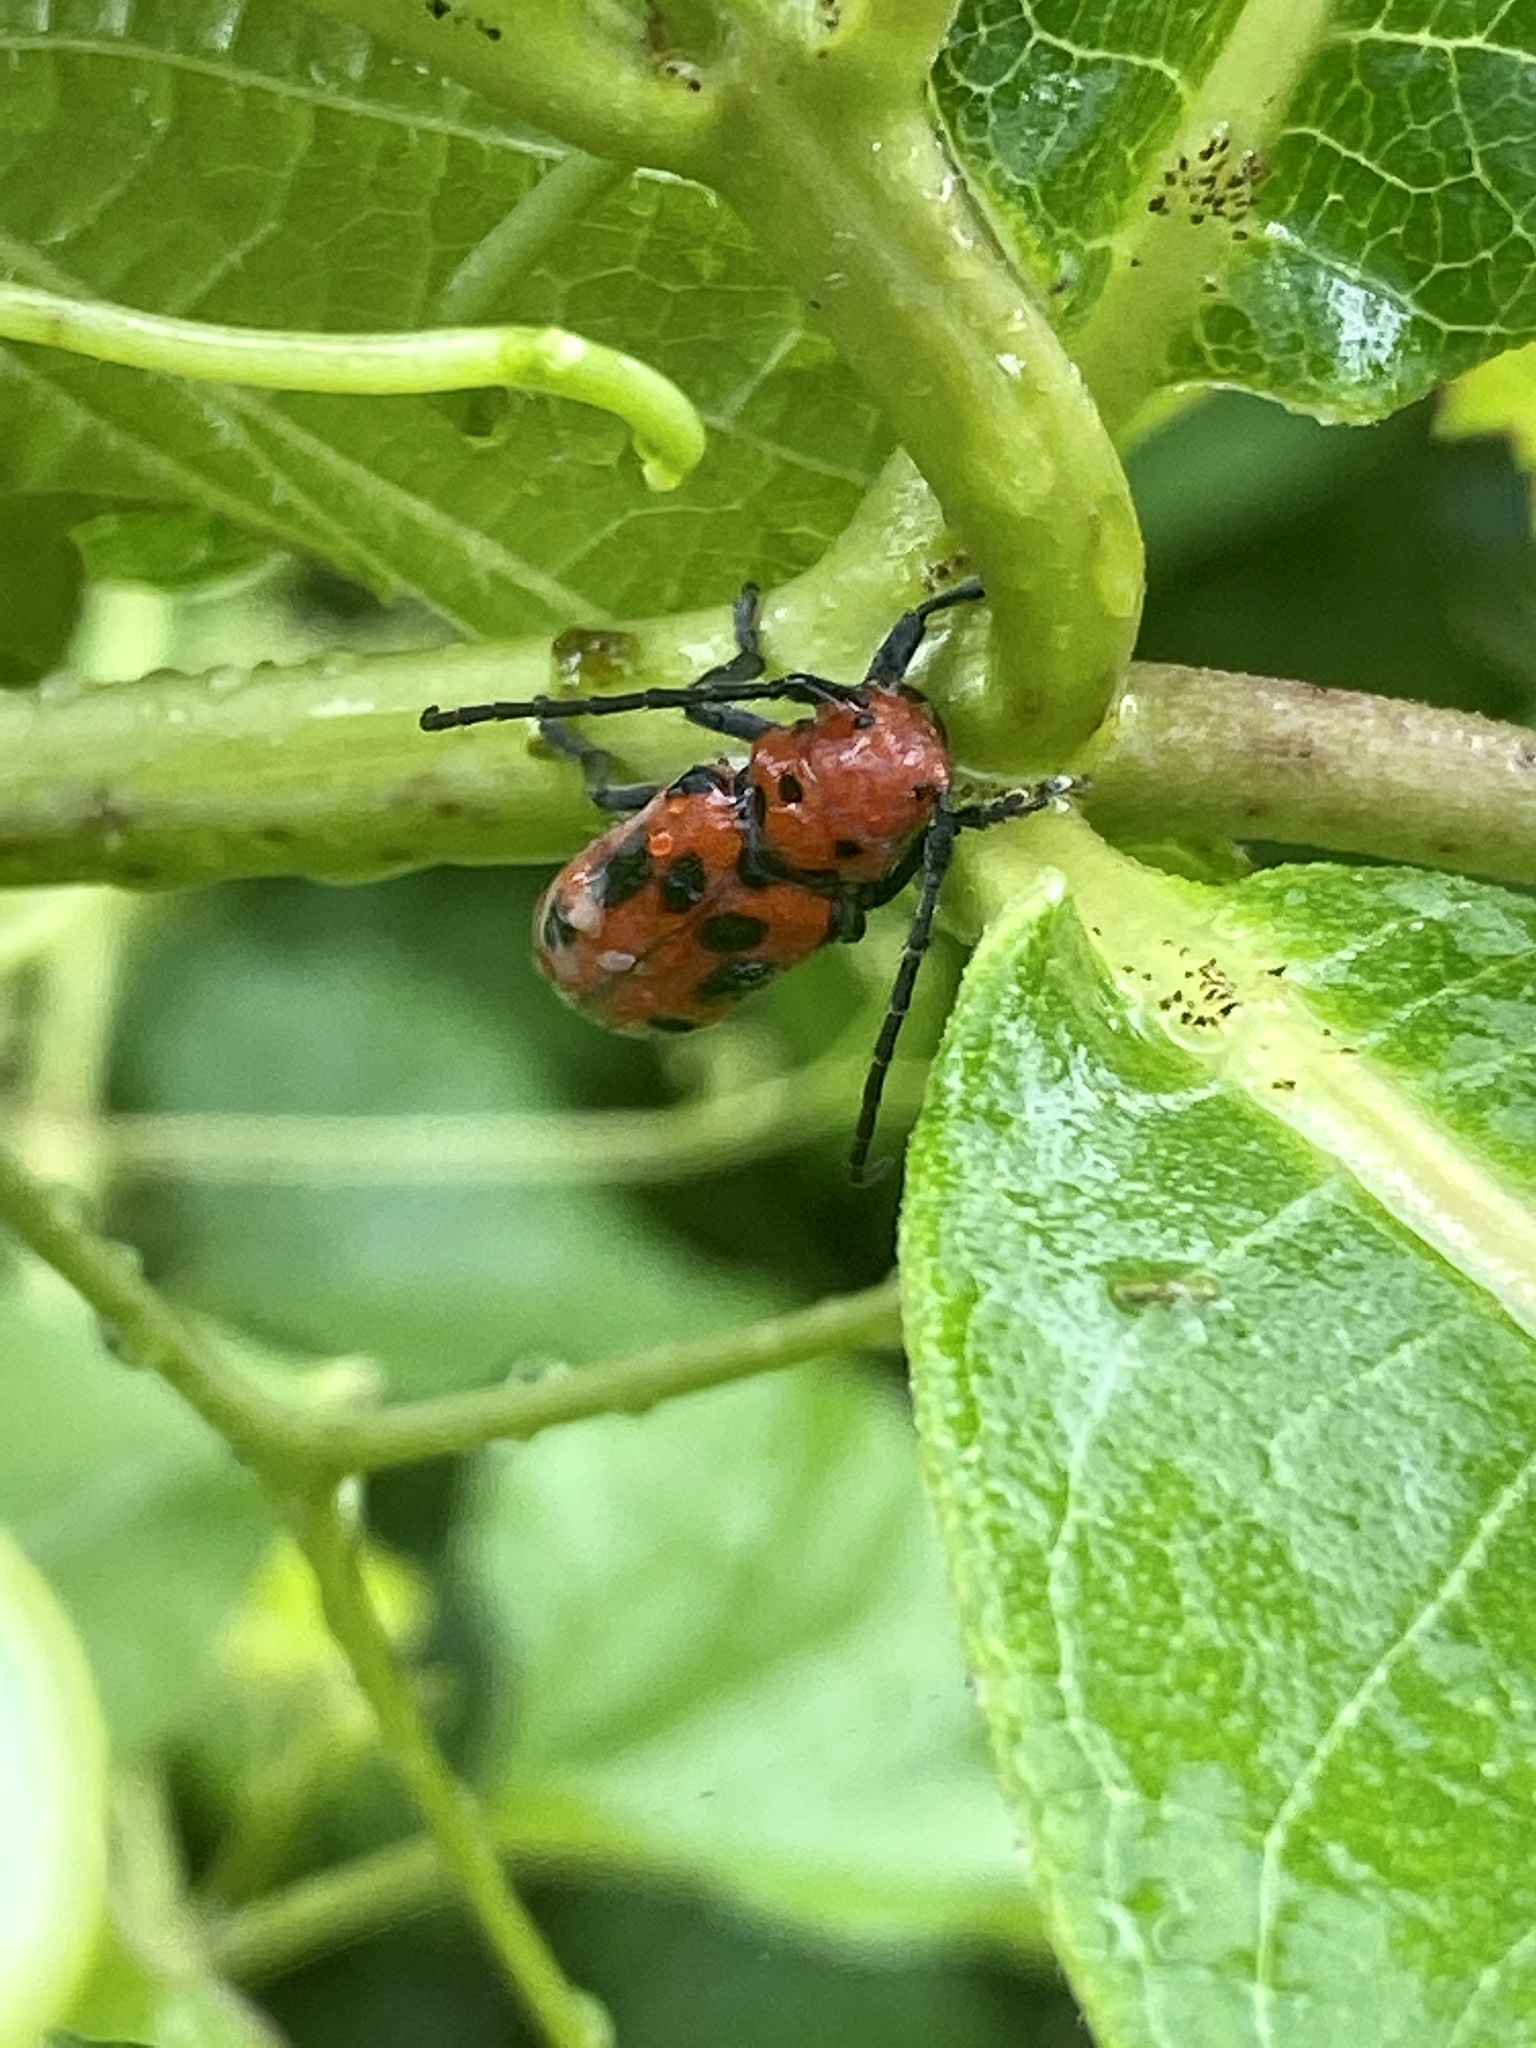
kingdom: Animalia
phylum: Arthropoda
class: Insecta
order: Coleoptera
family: Cerambycidae
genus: Tetraopes
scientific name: Tetraopes tetrophthalmus
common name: Red milkweed beetle
